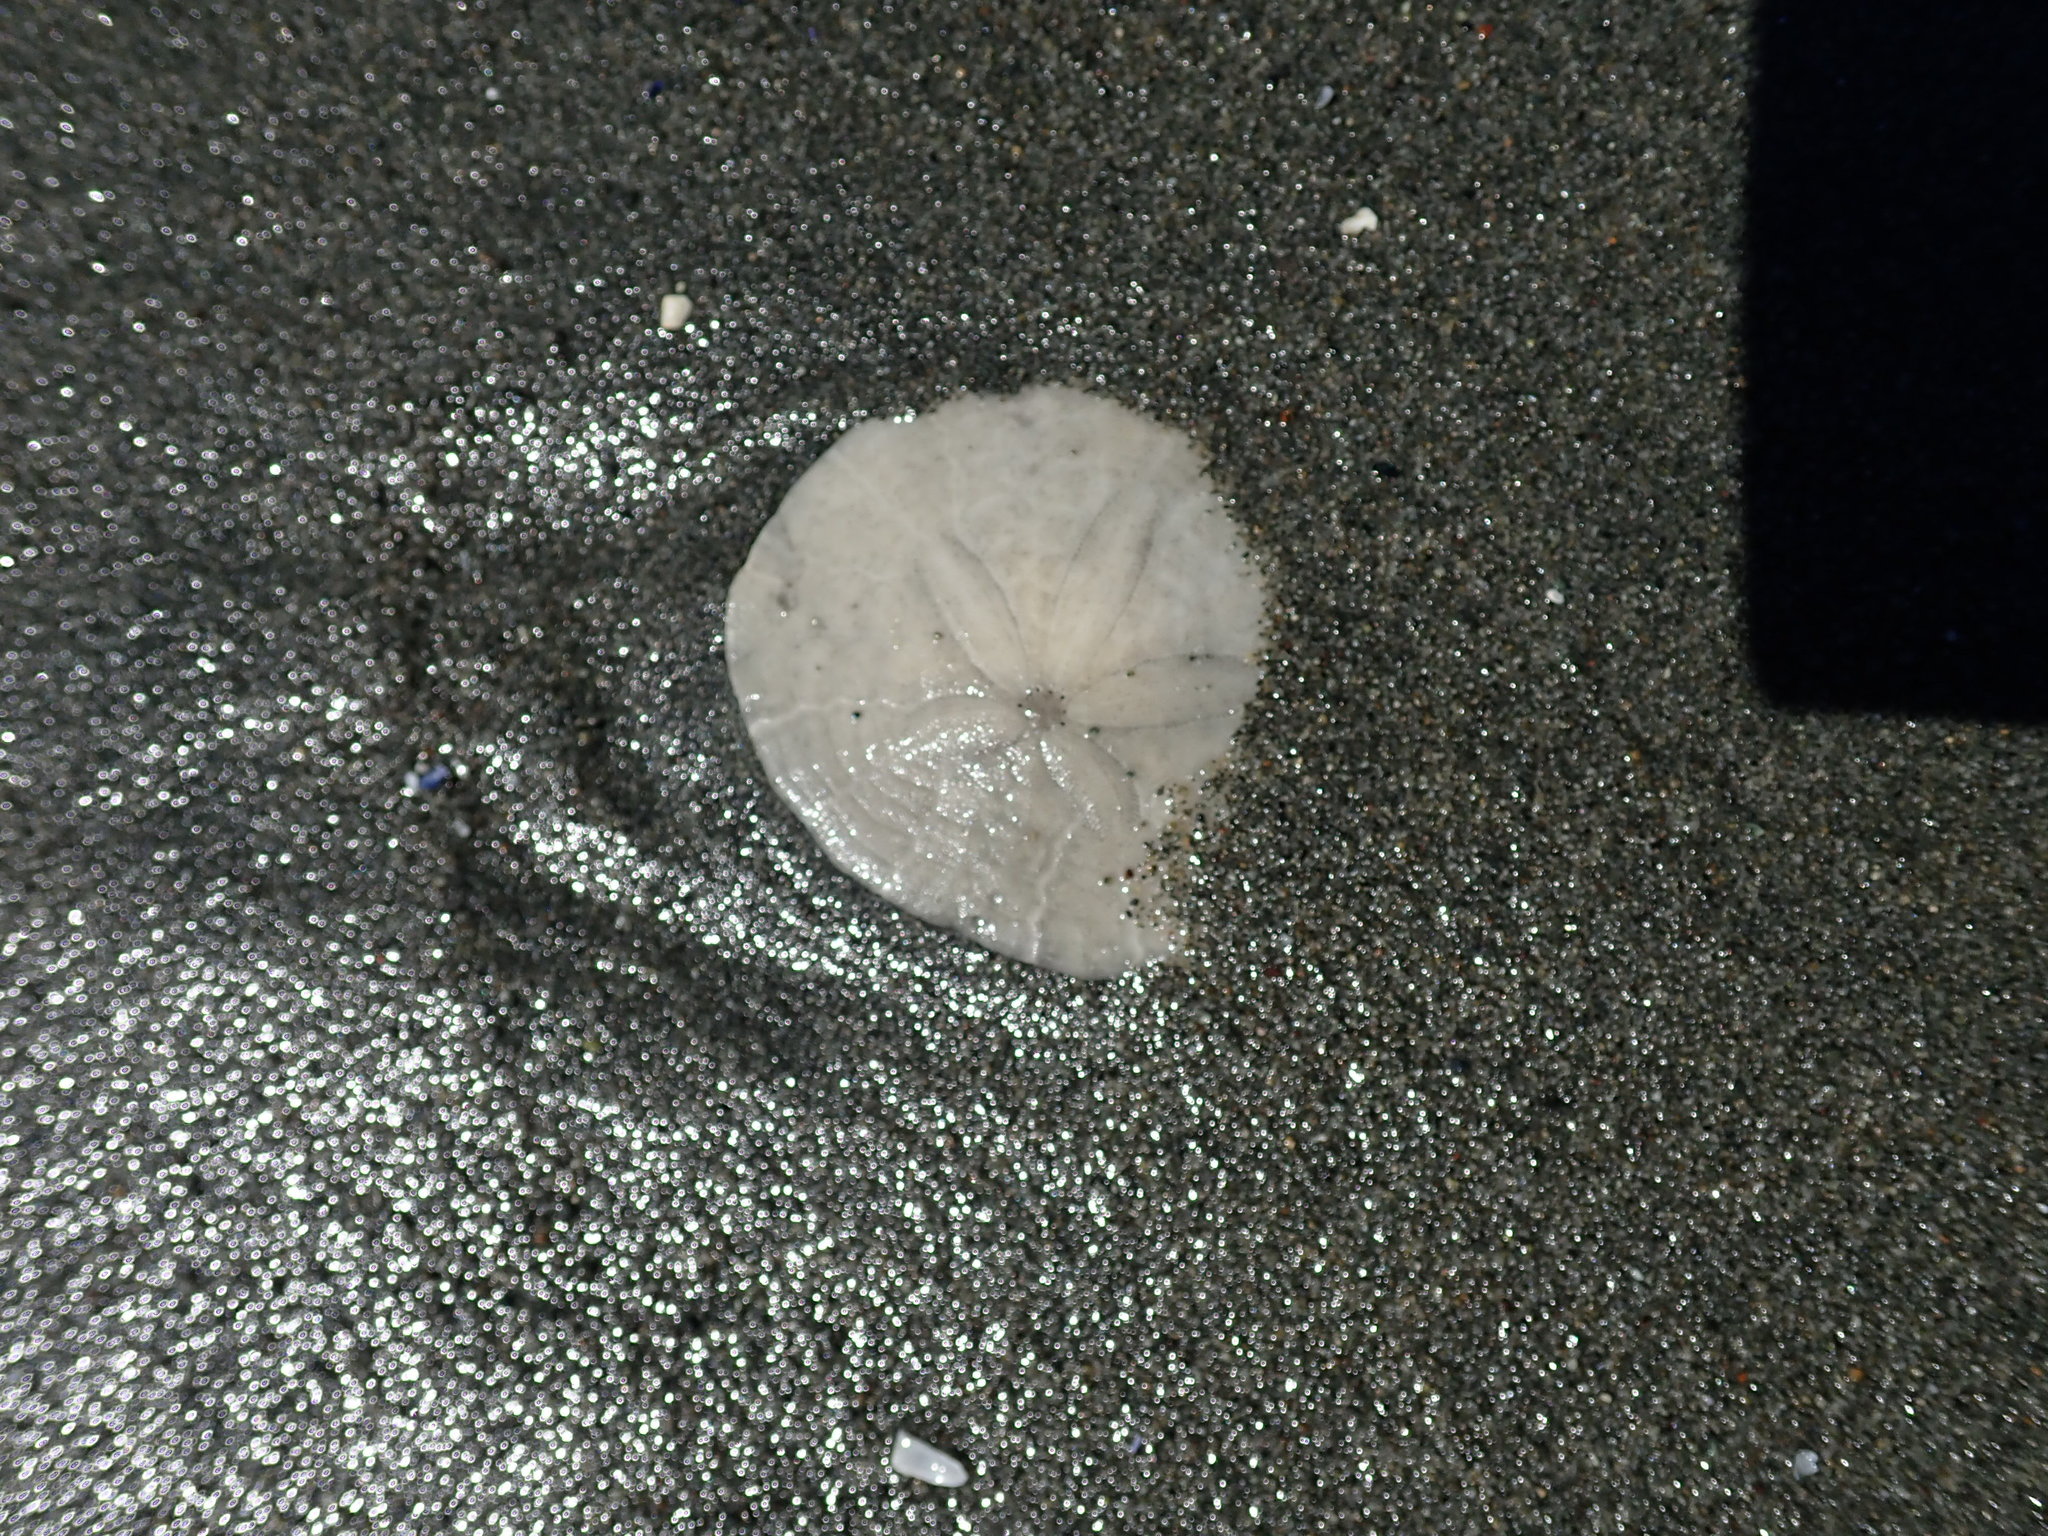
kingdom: Animalia
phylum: Echinodermata
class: Echinoidea
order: Echinolampadacea
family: Dendrasteridae
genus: Dendraster
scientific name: Dendraster excentricus
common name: Eccentric sand dollar sea urchin
